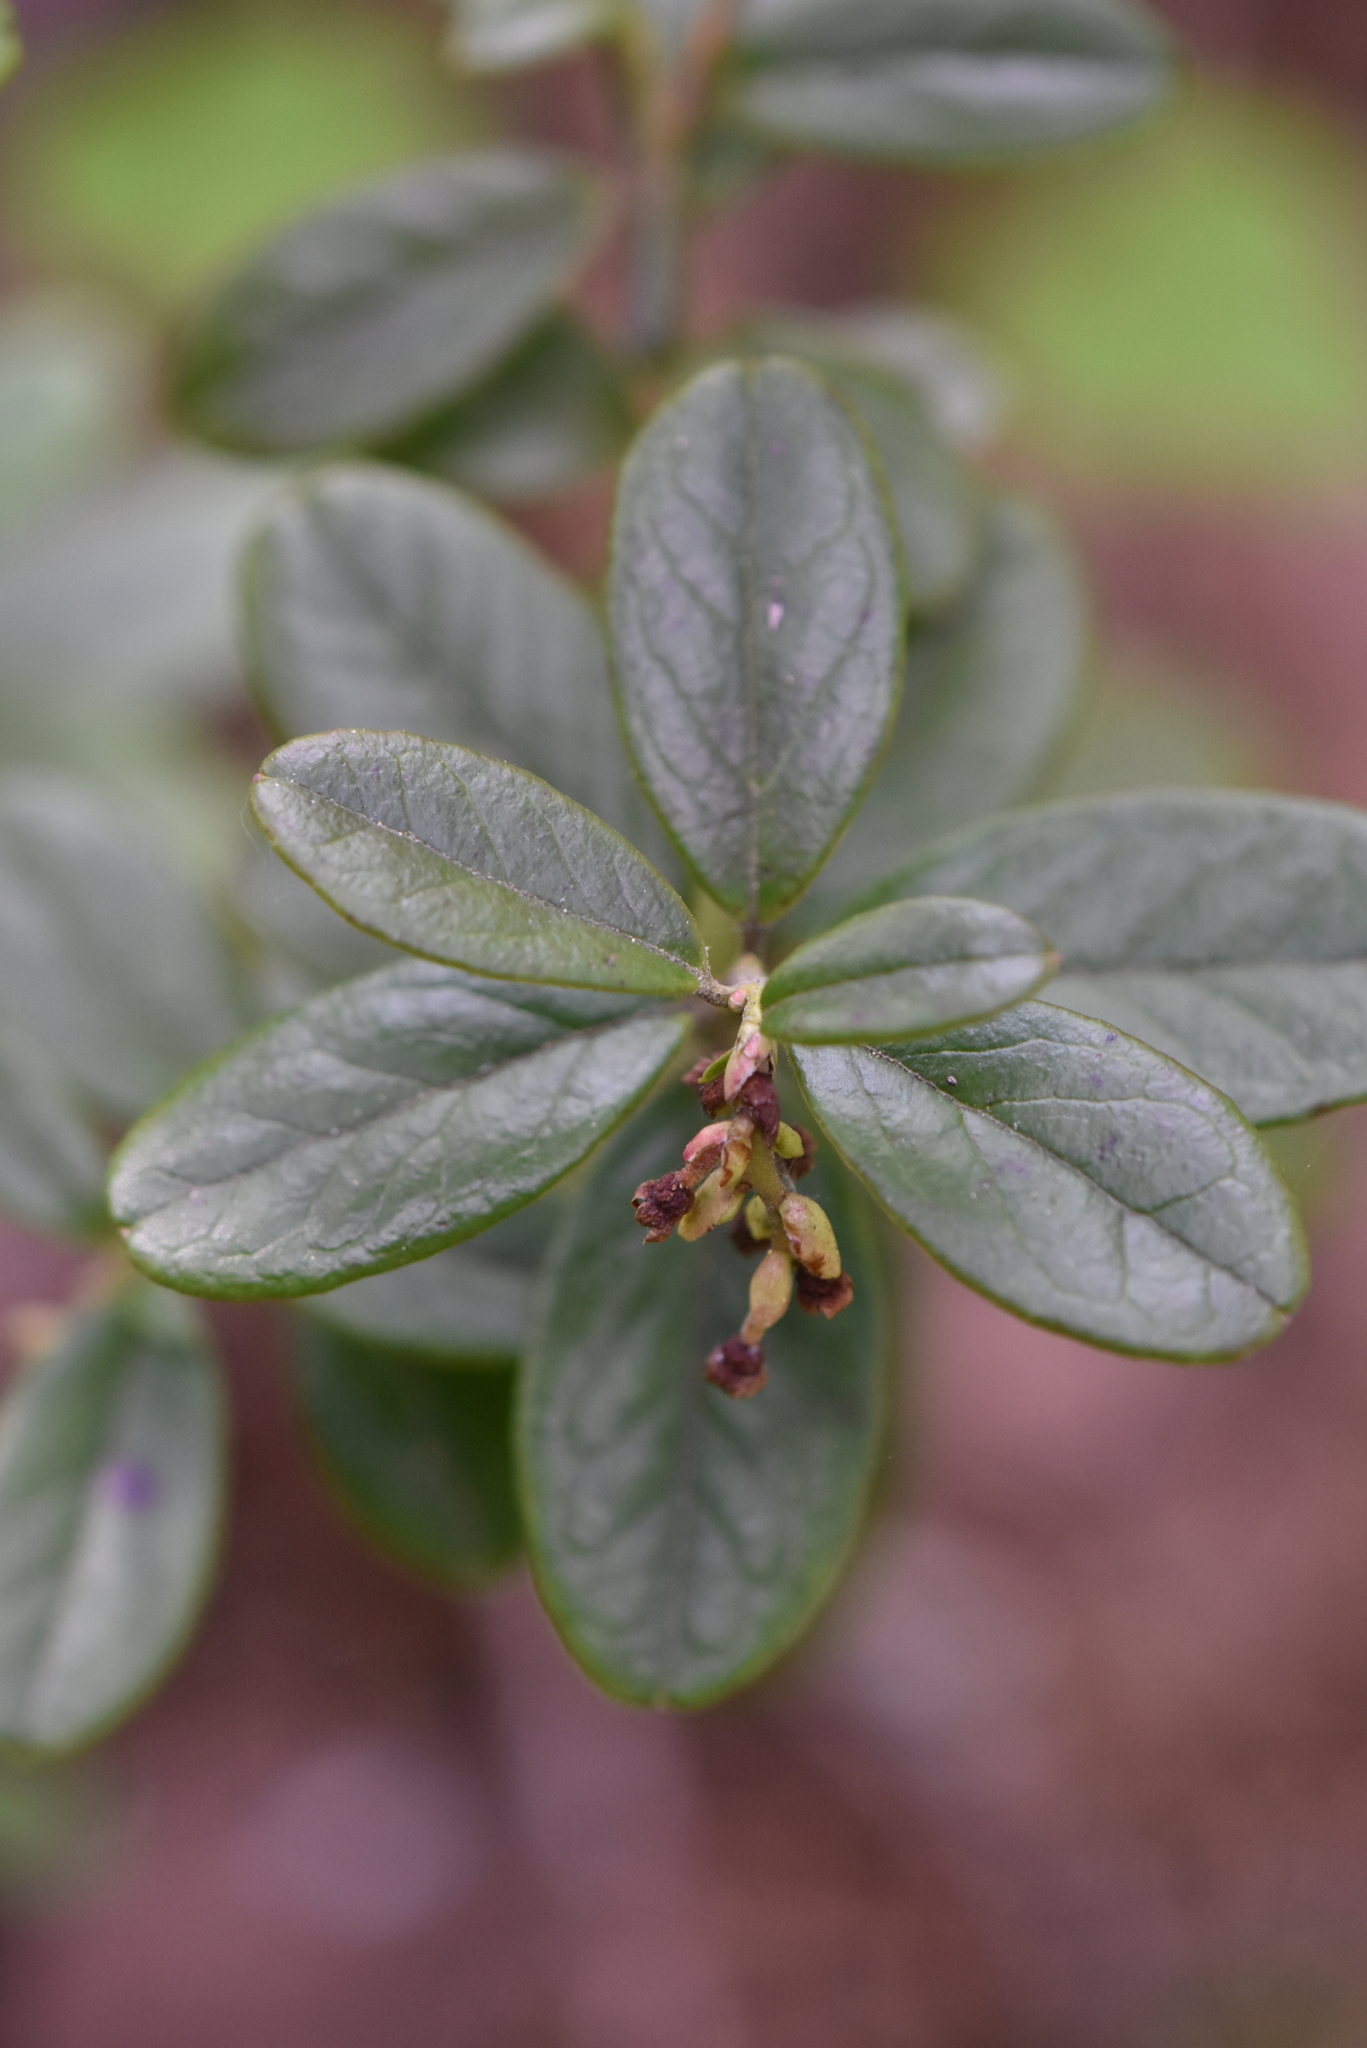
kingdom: Plantae
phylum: Tracheophyta
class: Magnoliopsida
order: Ericales
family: Ericaceae
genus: Vaccinium
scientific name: Vaccinium vitis-idaea
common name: Cowberry
